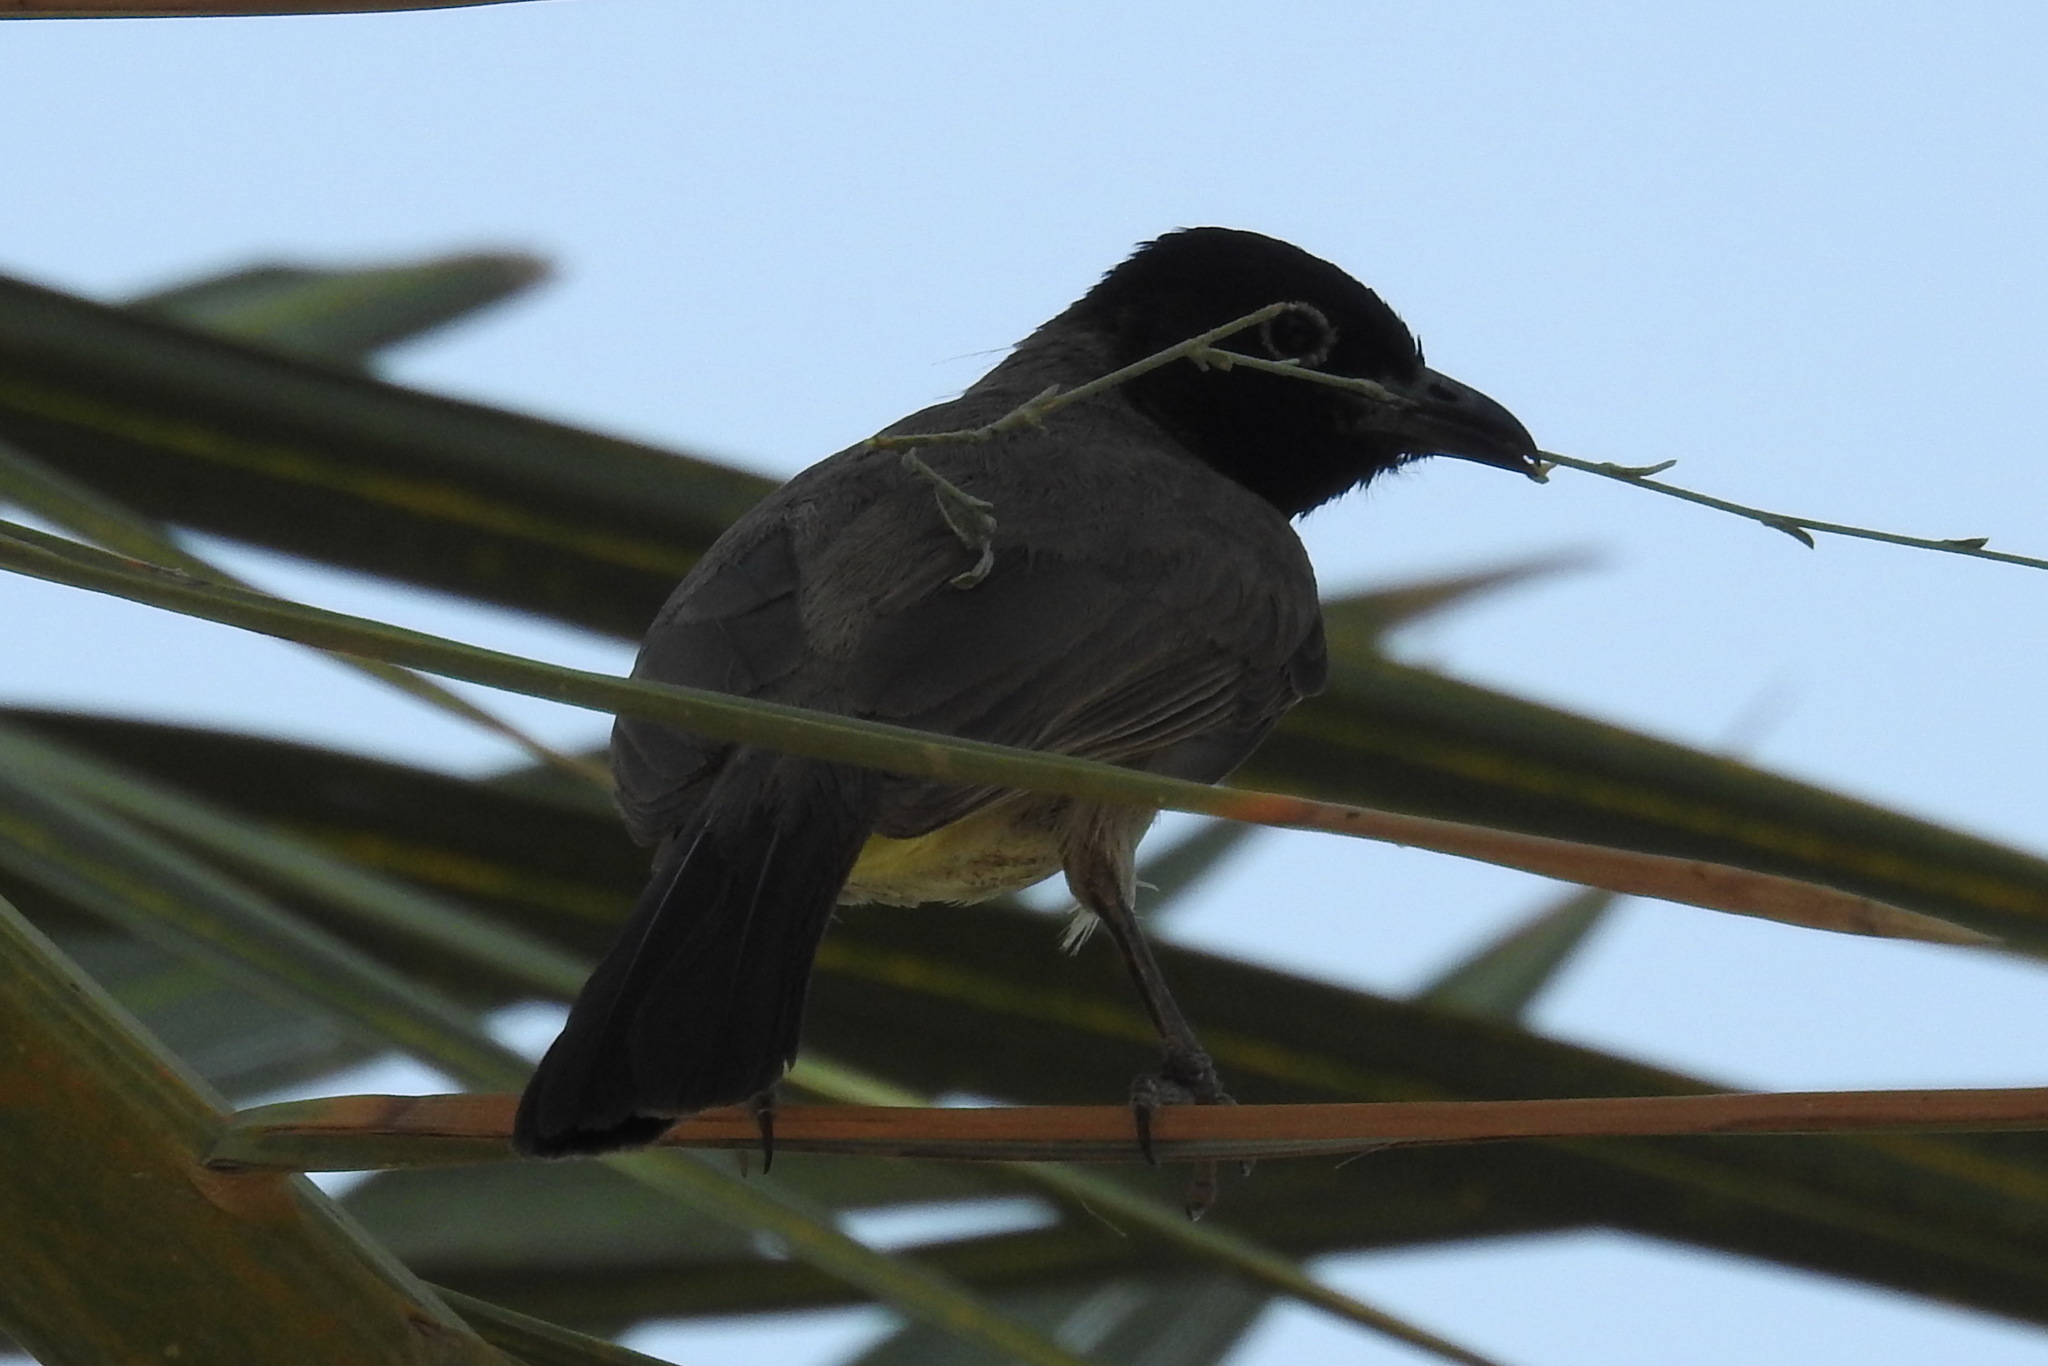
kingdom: Animalia
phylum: Chordata
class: Aves
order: Passeriformes
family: Pycnonotidae
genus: Pycnonotus
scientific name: Pycnonotus xanthopygos
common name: White-spectacled bulbul
